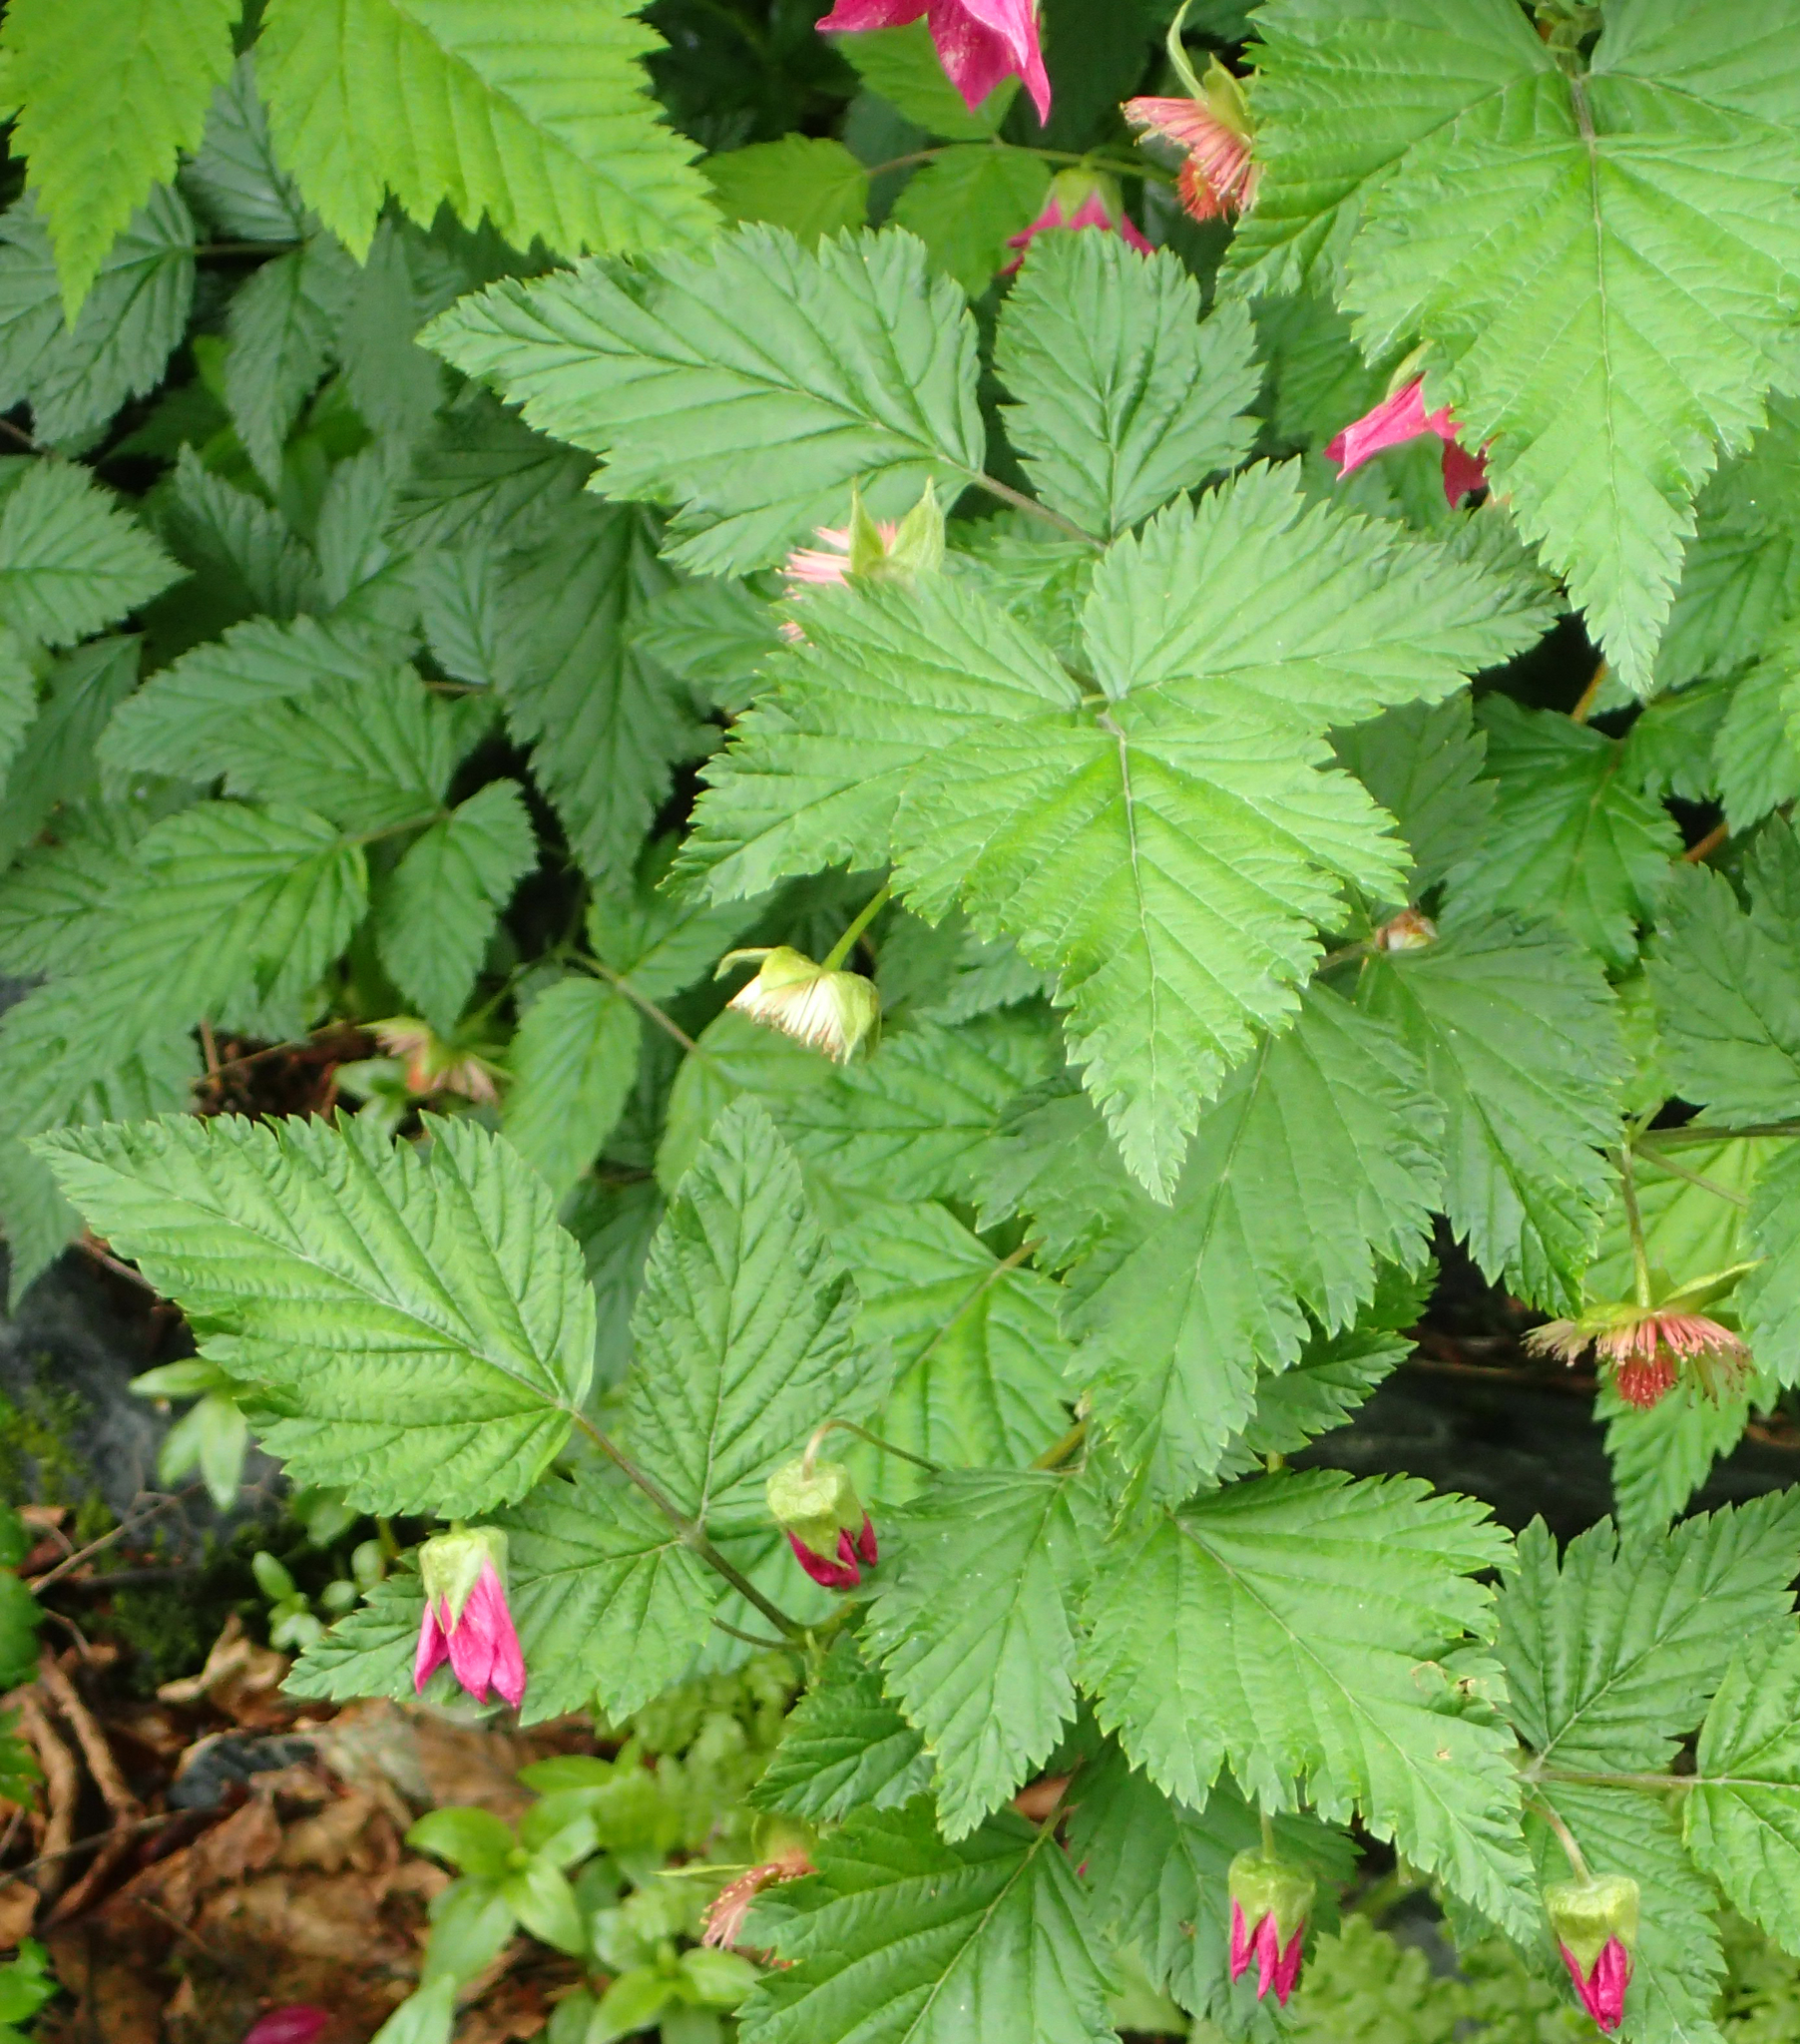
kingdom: Plantae
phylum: Tracheophyta
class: Magnoliopsida
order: Rosales
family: Rosaceae
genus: Rubus
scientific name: Rubus spectabilis
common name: Salmonberry
